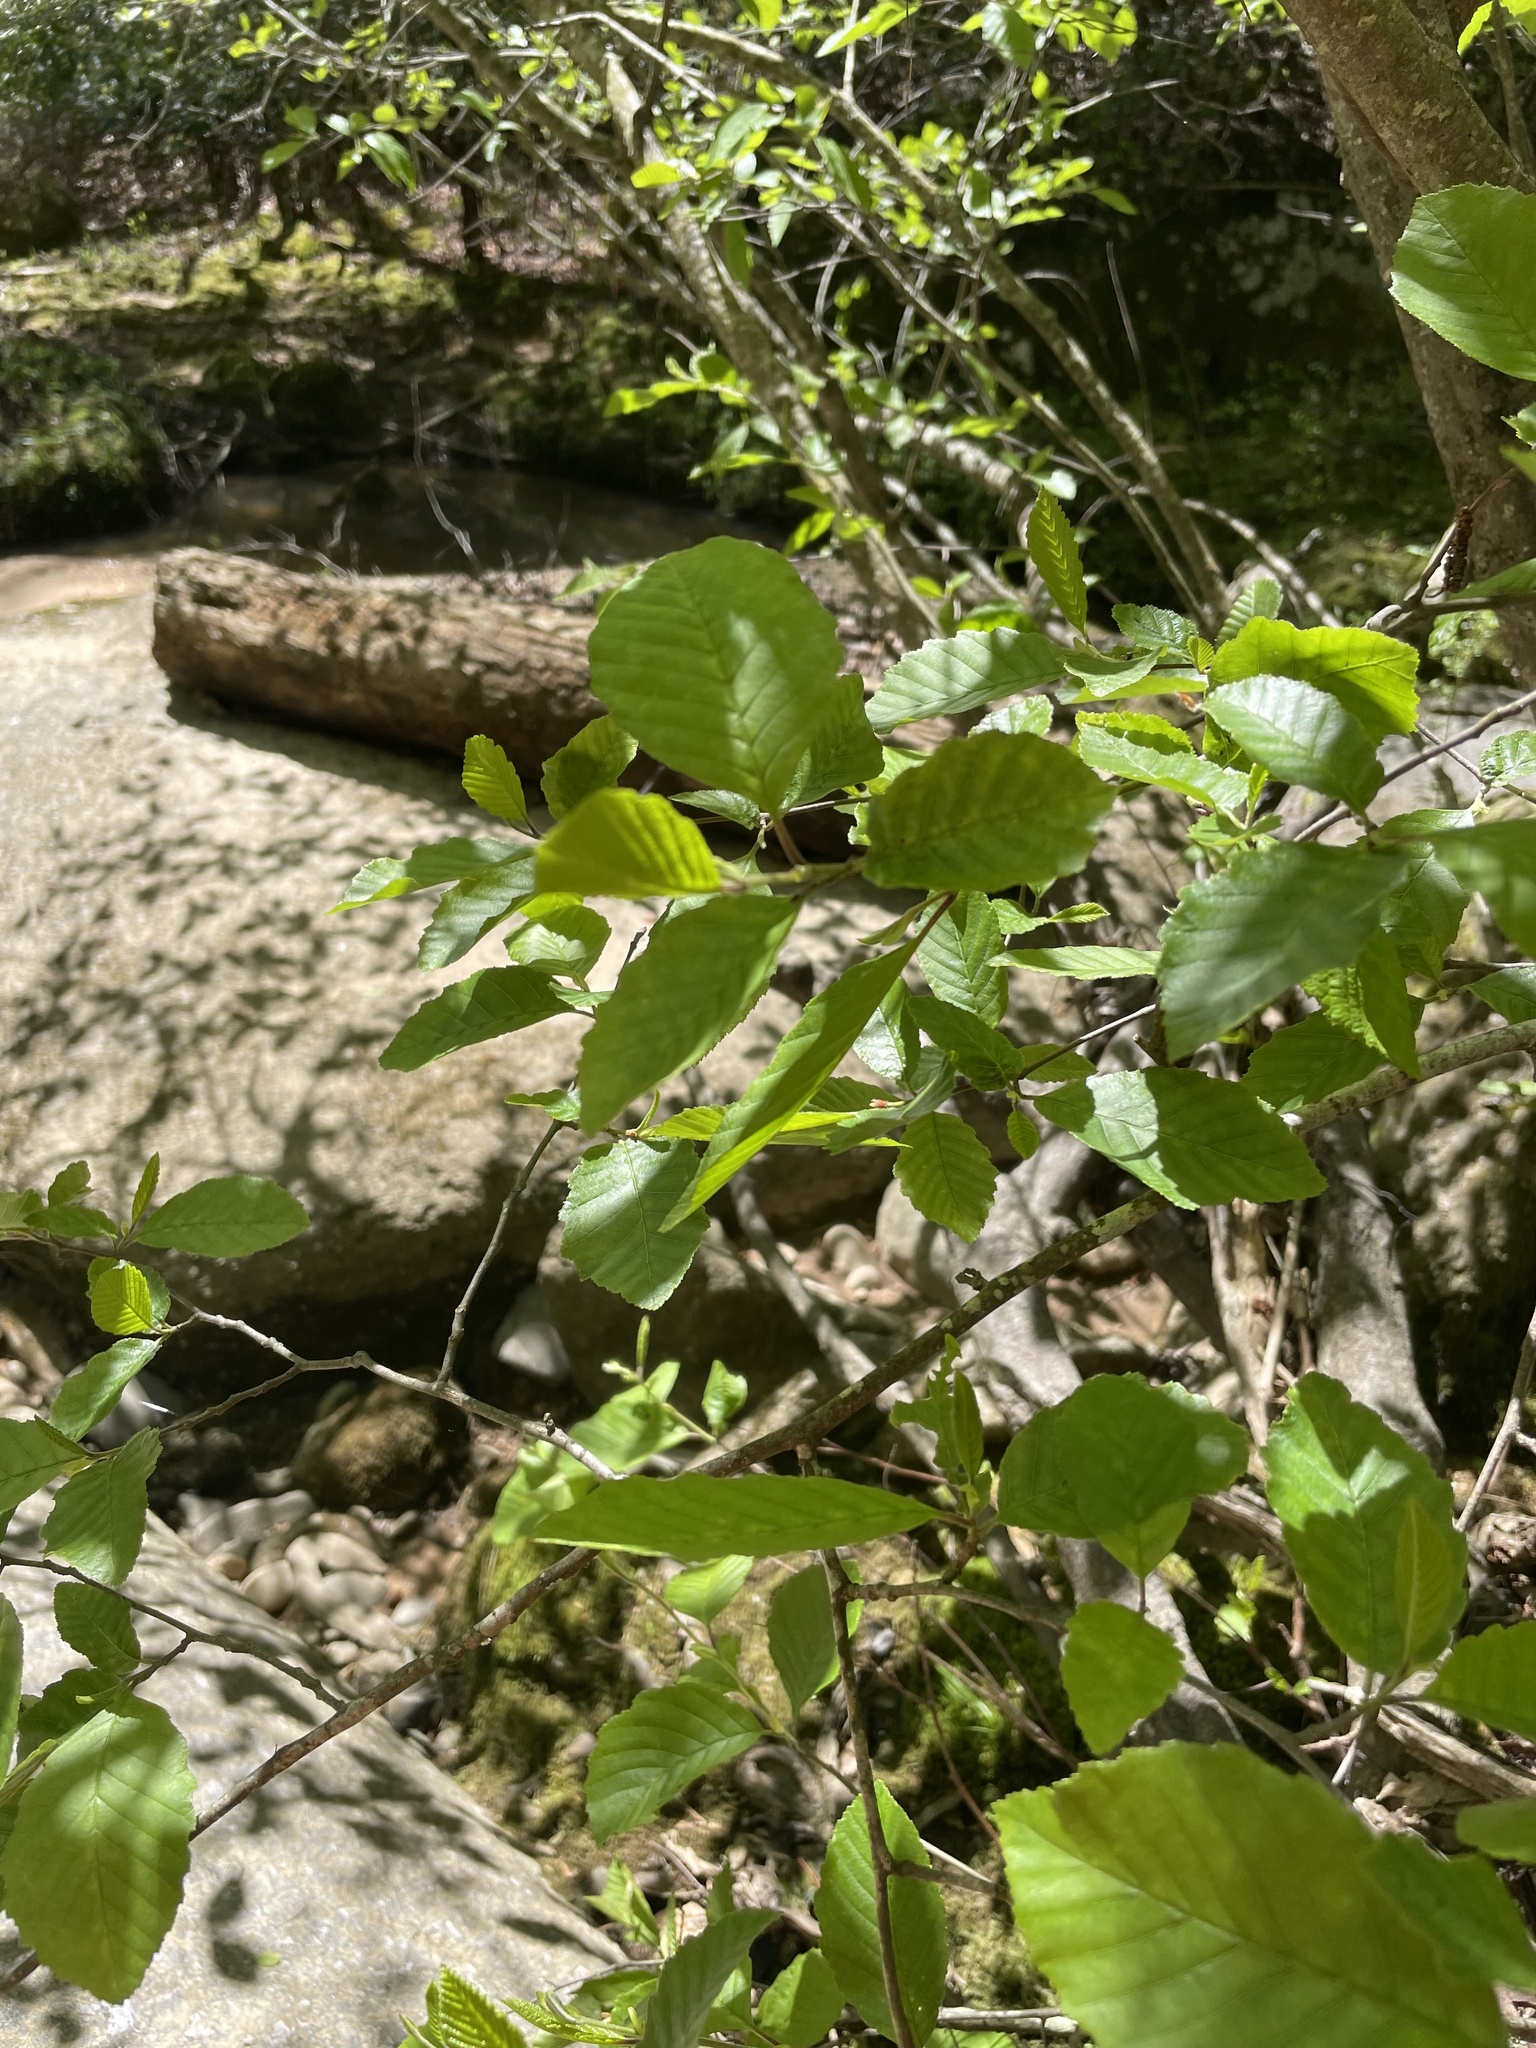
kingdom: Plantae
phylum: Tracheophyta
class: Magnoliopsida
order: Fagales
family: Betulaceae
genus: Alnus
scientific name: Alnus serrulata
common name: Hazel alder
